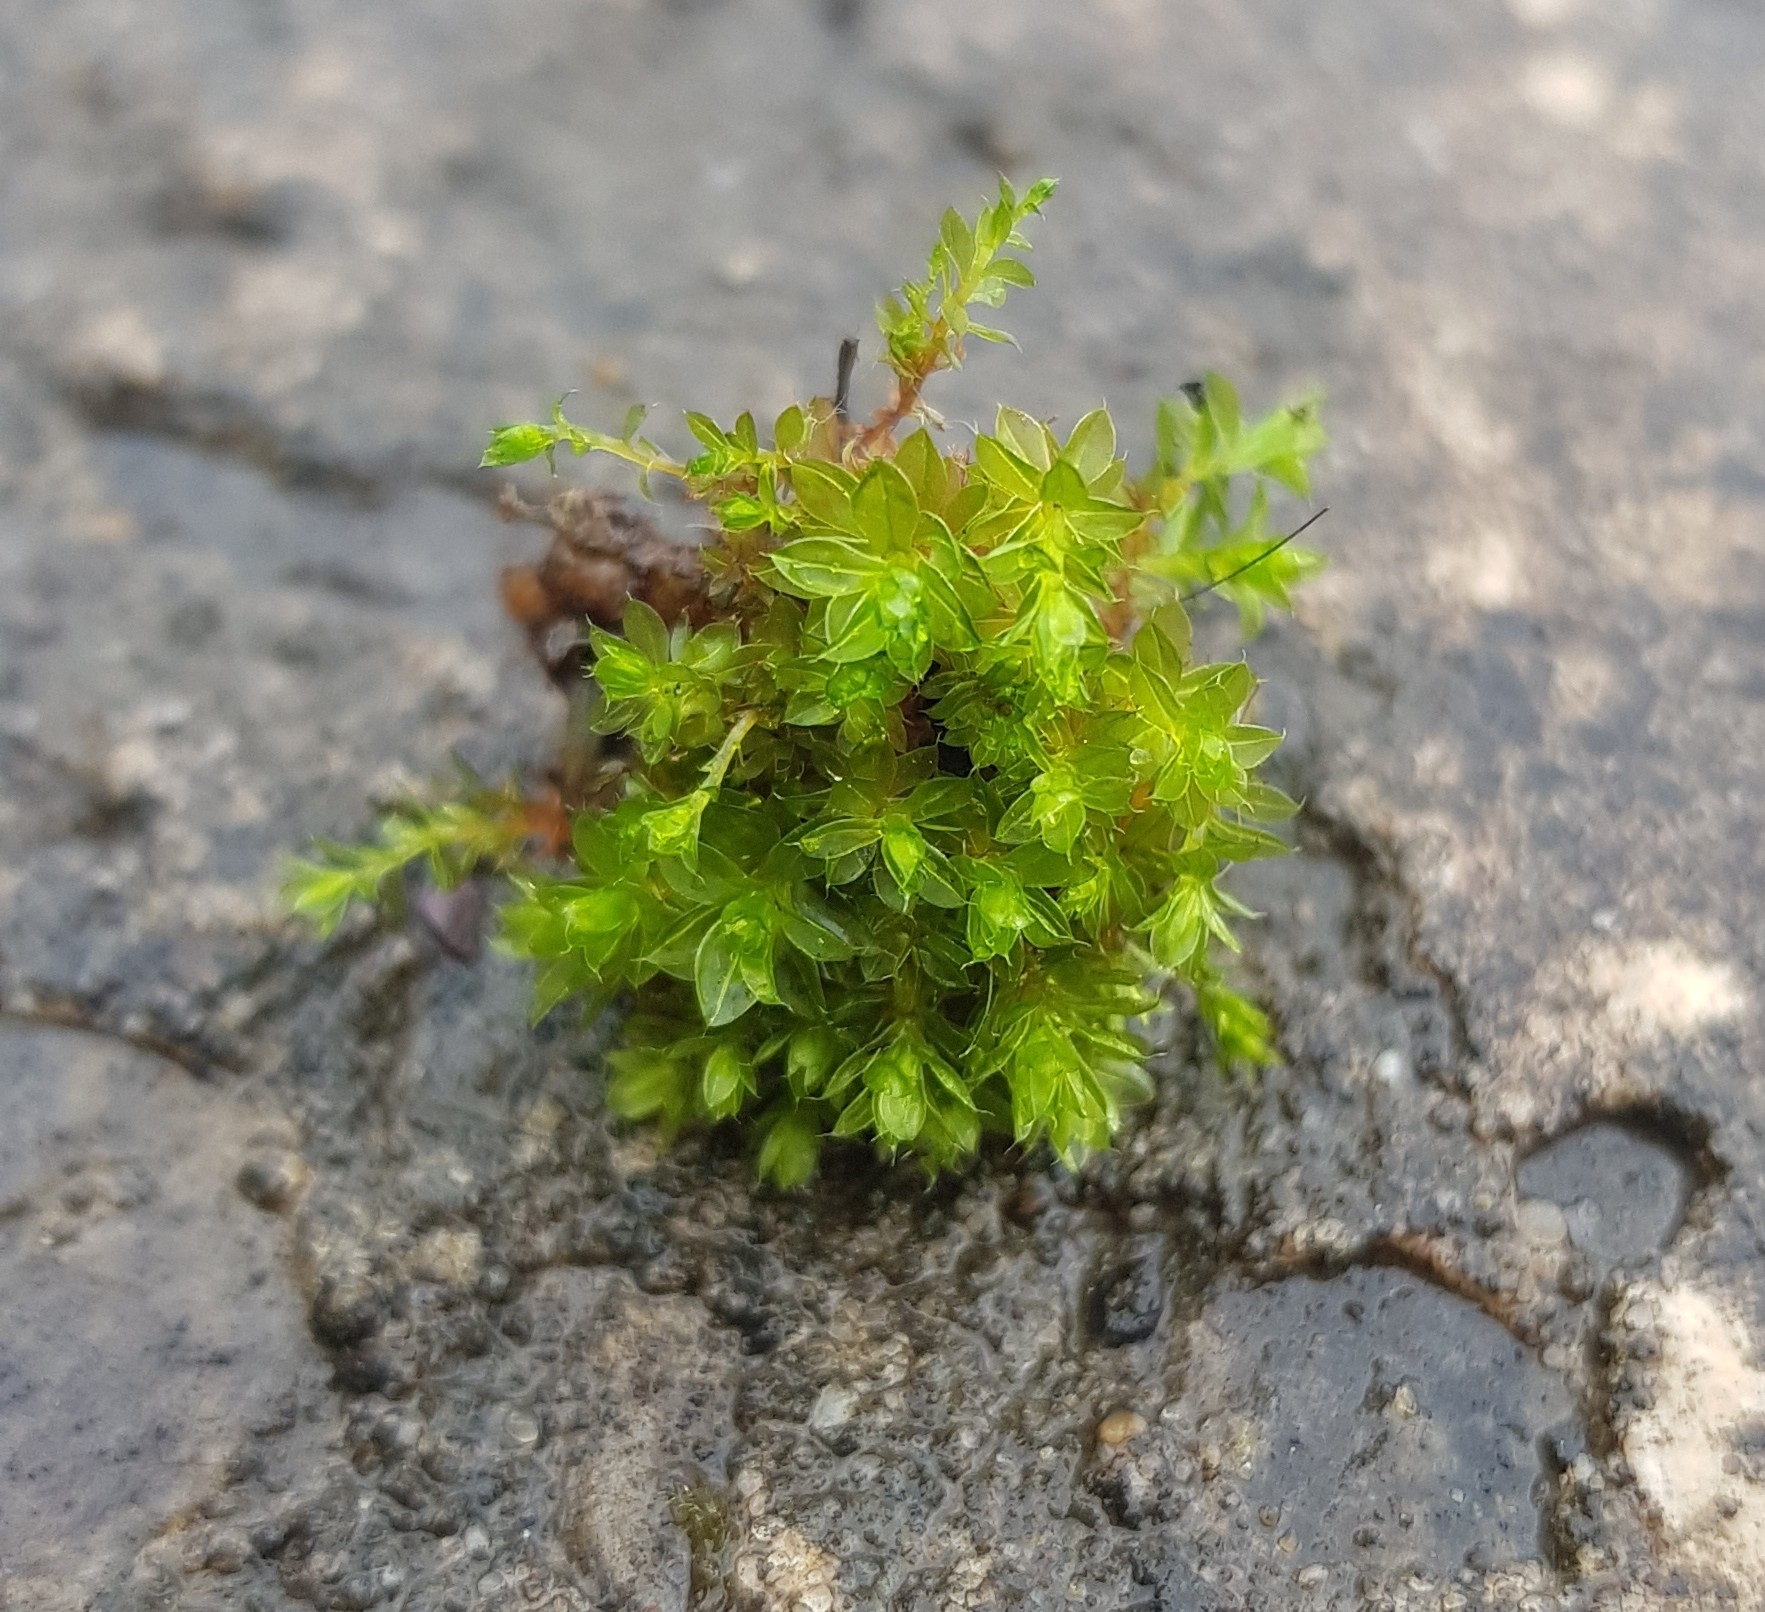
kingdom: Plantae
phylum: Bryophyta
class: Bryopsida
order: Bryales
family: Bryaceae
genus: Rosulabryum
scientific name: Rosulabryum capillare
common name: Capillary thread-moss
